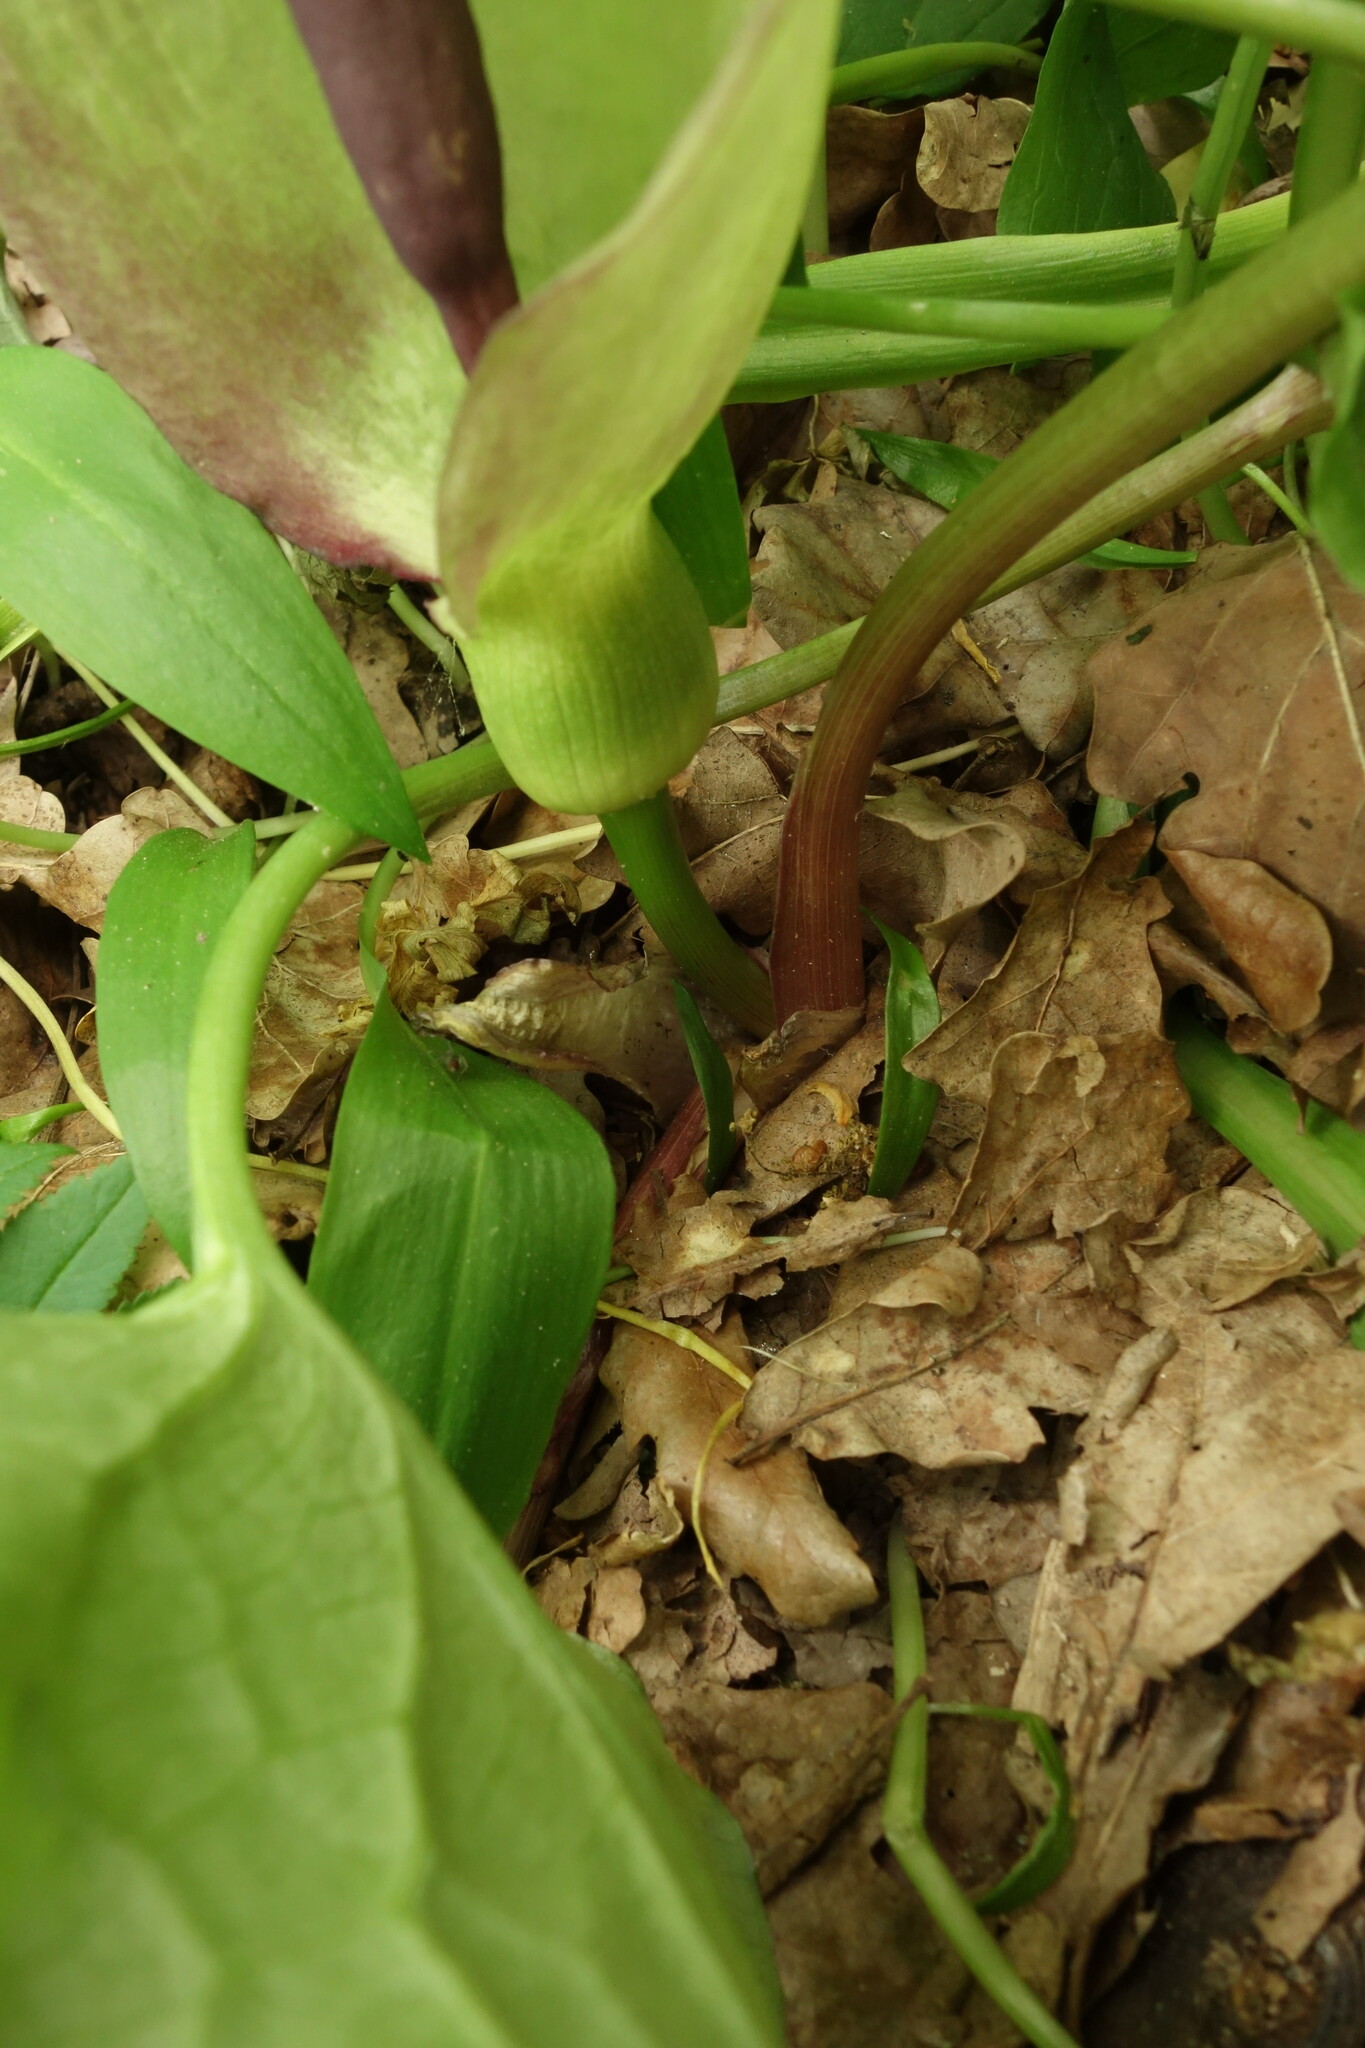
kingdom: Plantae
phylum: Tracheophyta
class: Liliopsida
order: Alismatales
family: Araceae
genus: Arum
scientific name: Arum orientale
